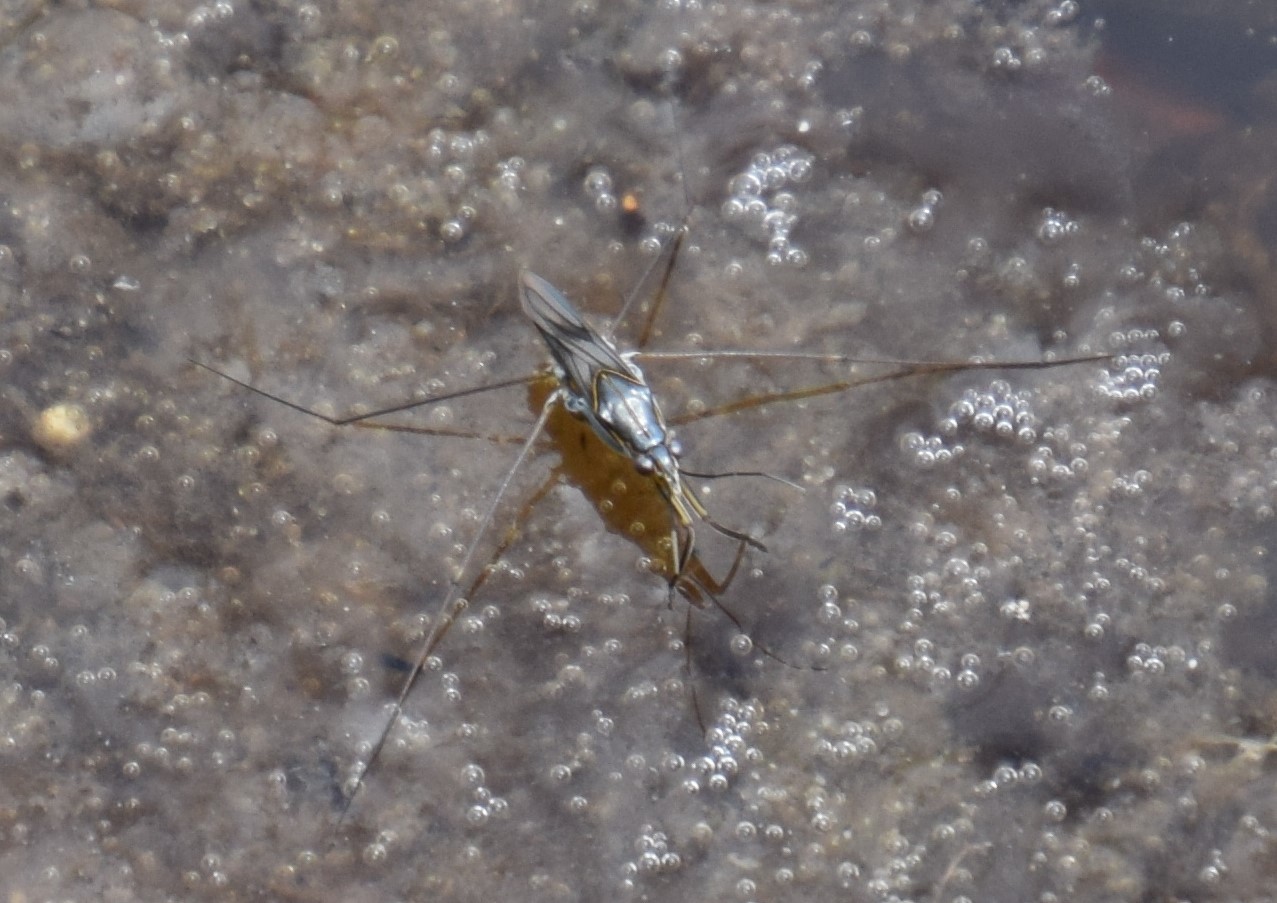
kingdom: Animalia
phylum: Arthropoda
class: Insecta
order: Hemiptera
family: Gerridae
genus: Limnogonus
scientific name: Limnogonus
